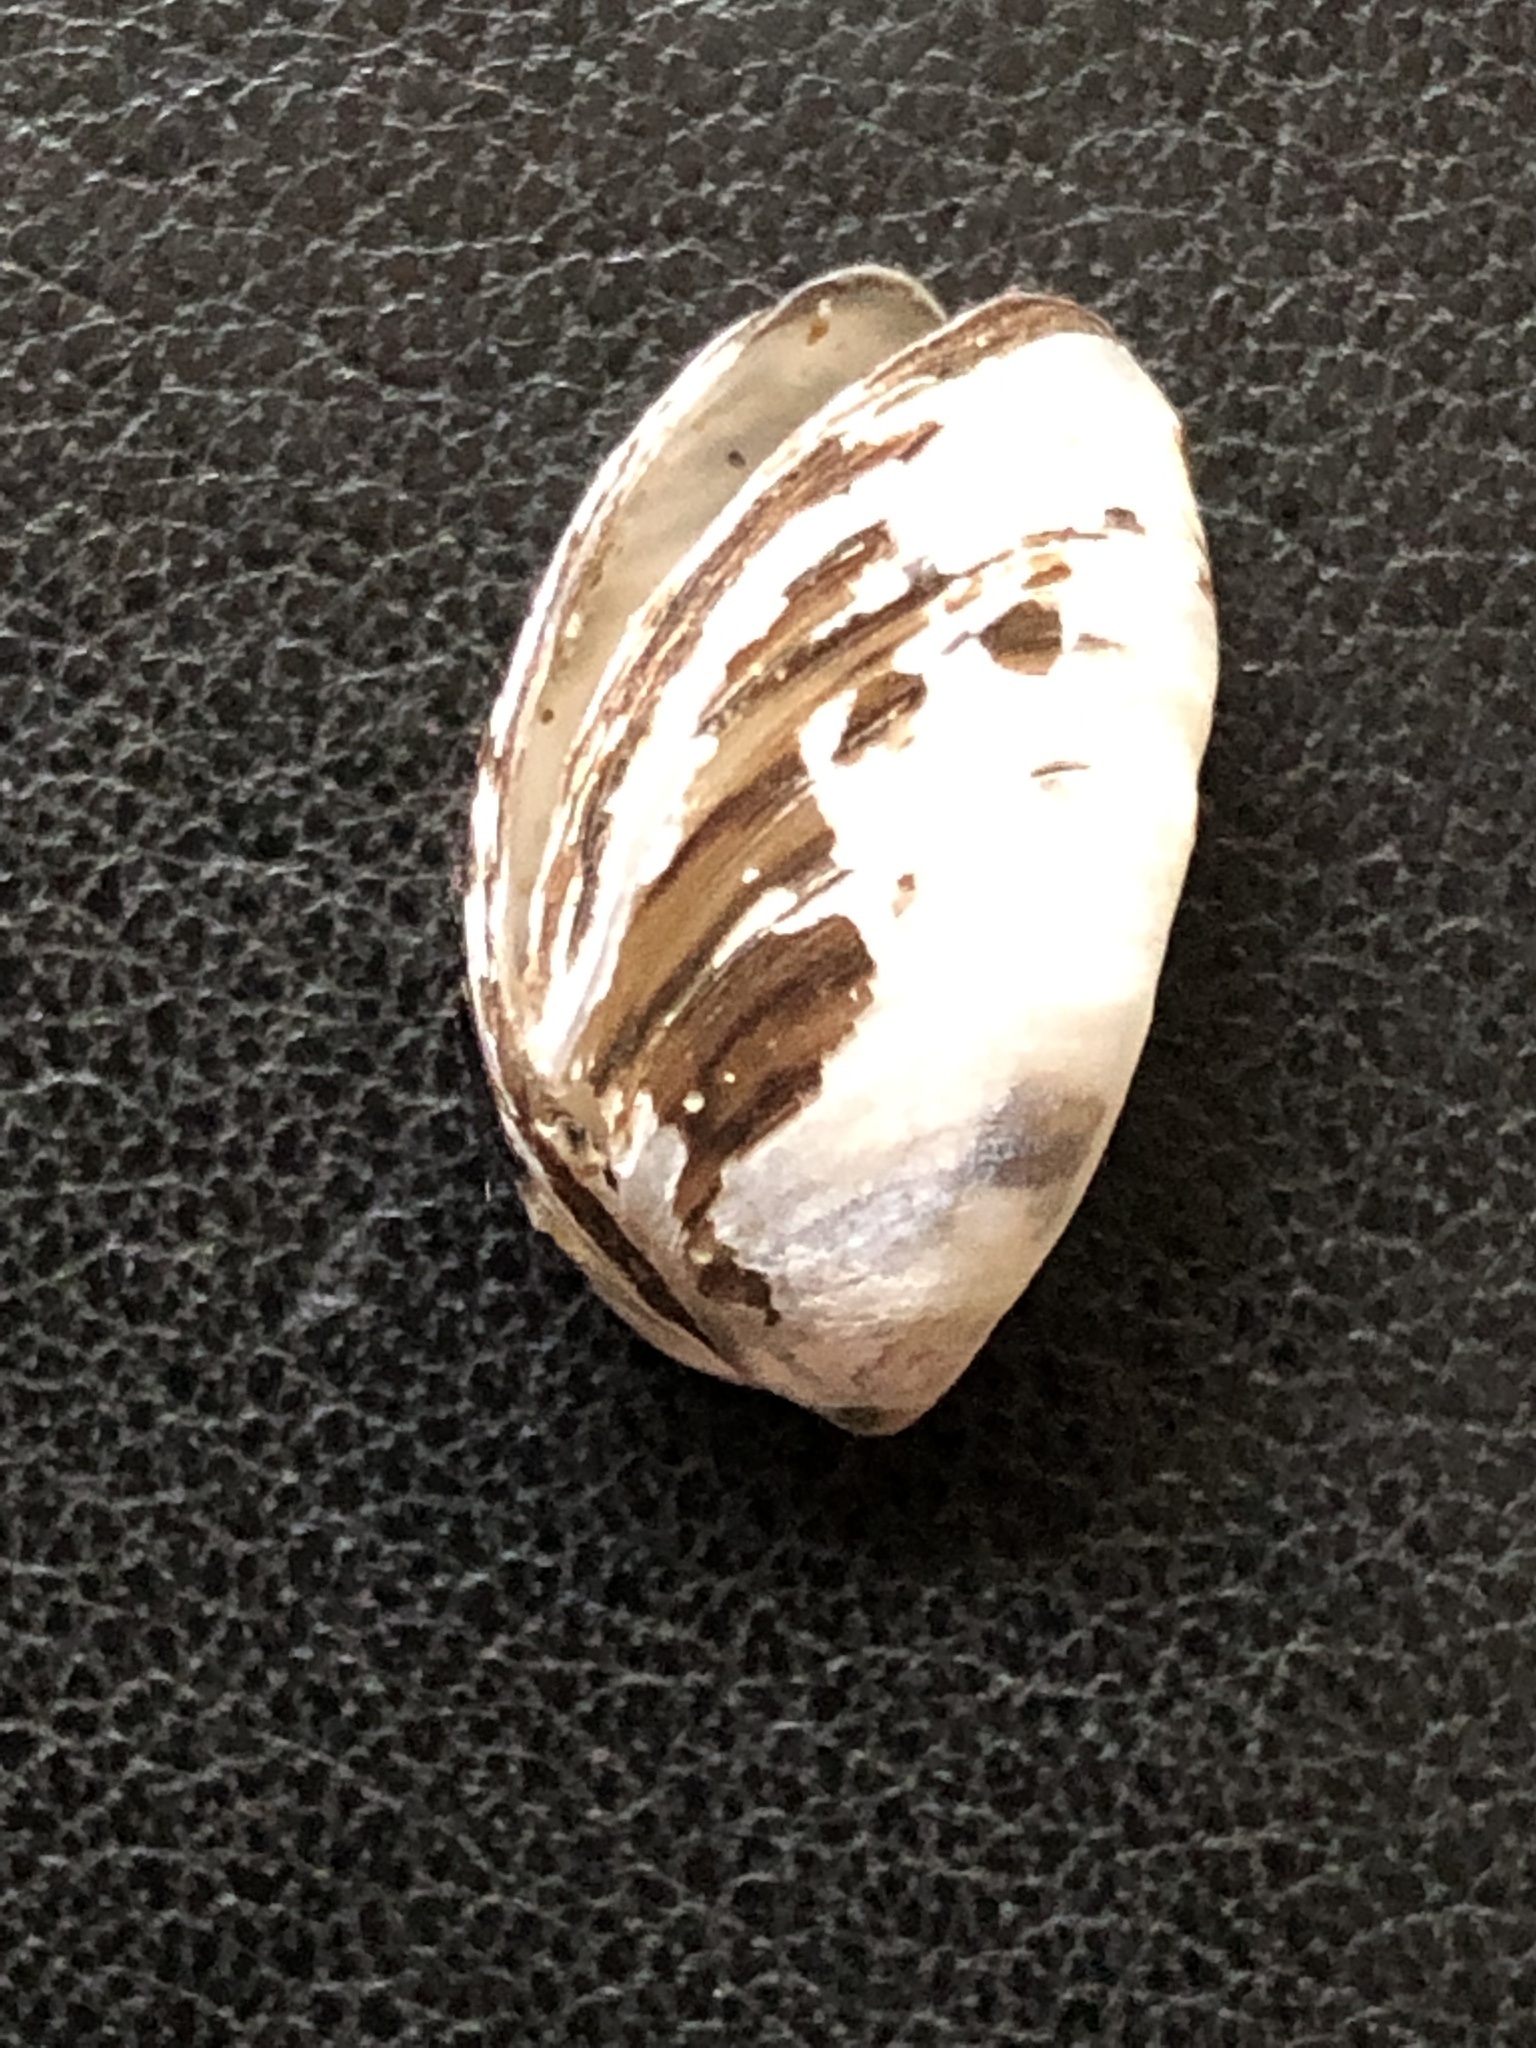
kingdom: Animalia
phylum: Mollusca
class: Bivalvia
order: Myida
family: Dreissenidae
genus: Dreissena
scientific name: Dreissena polymorpha
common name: Zebra mussel
